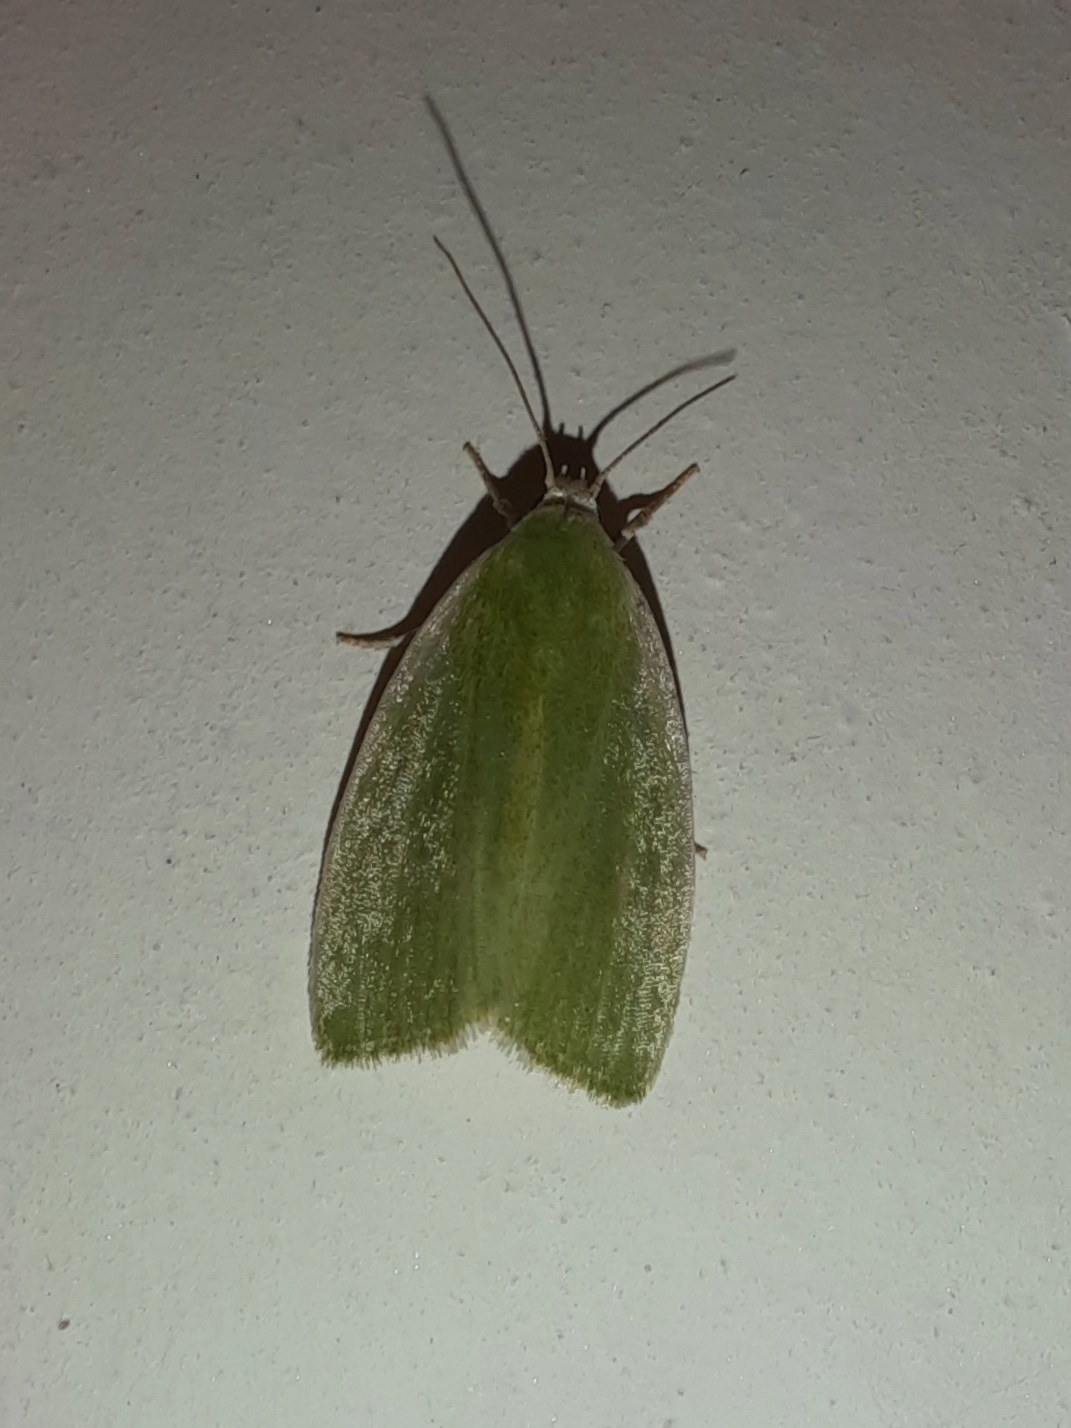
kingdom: Animalia
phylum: Arthropoda
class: Insecta
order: Lepidoptera
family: Nolidae
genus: Earias
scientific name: Earias clorana
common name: Cream-bordered green pea
